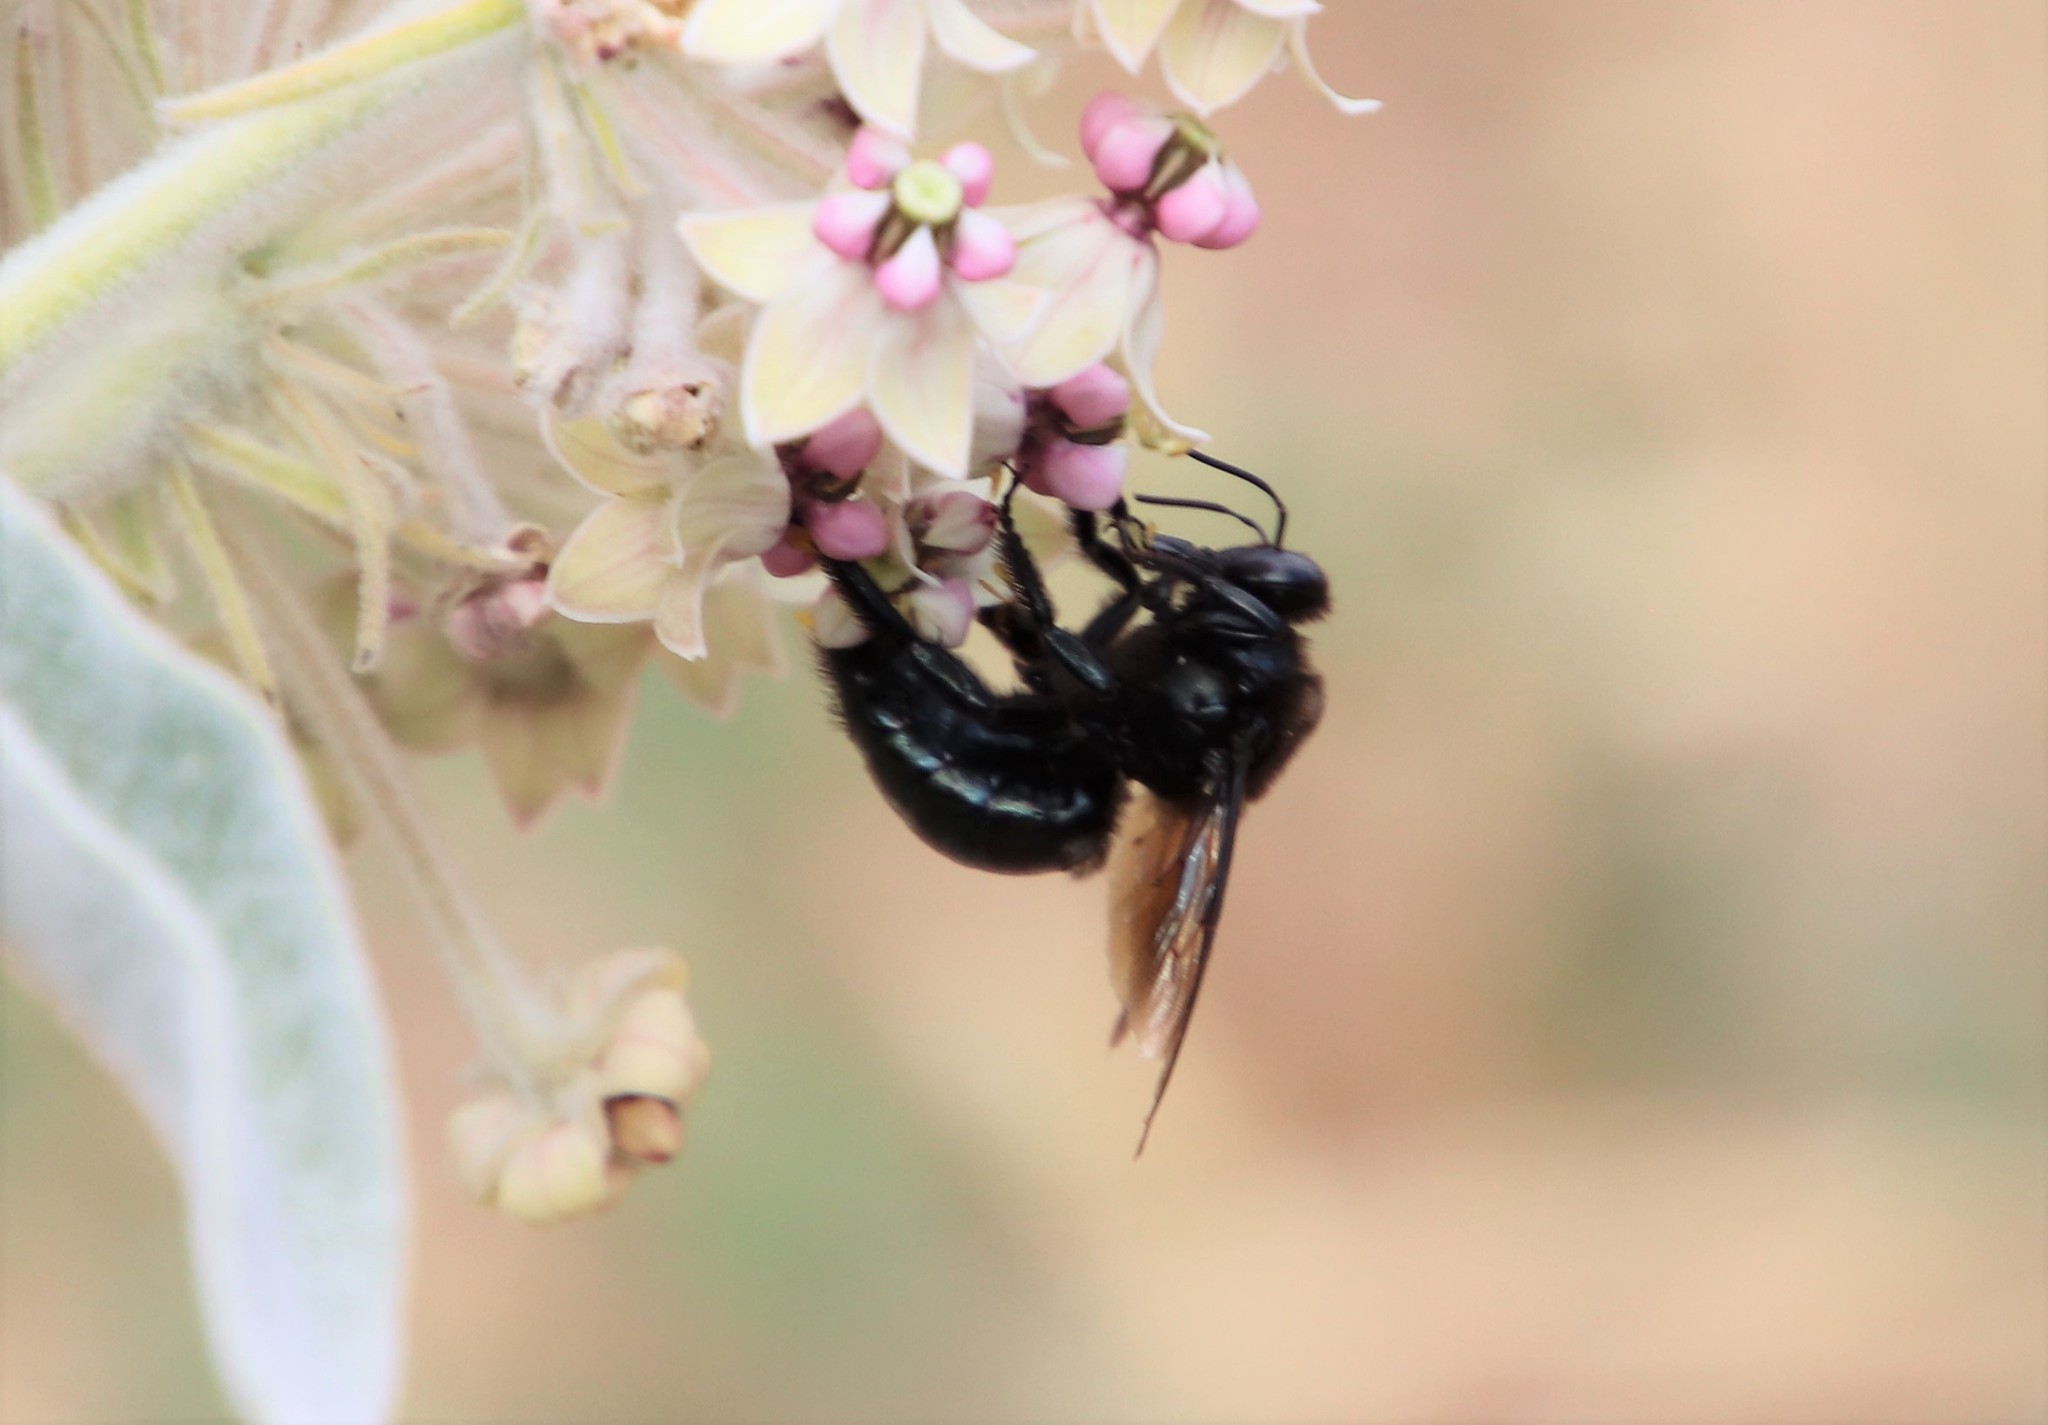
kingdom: Animalia
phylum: Arthropoda
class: Insecta
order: Hymenoptera
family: Apidae
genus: Xylocopa
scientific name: Xylocopa californica
